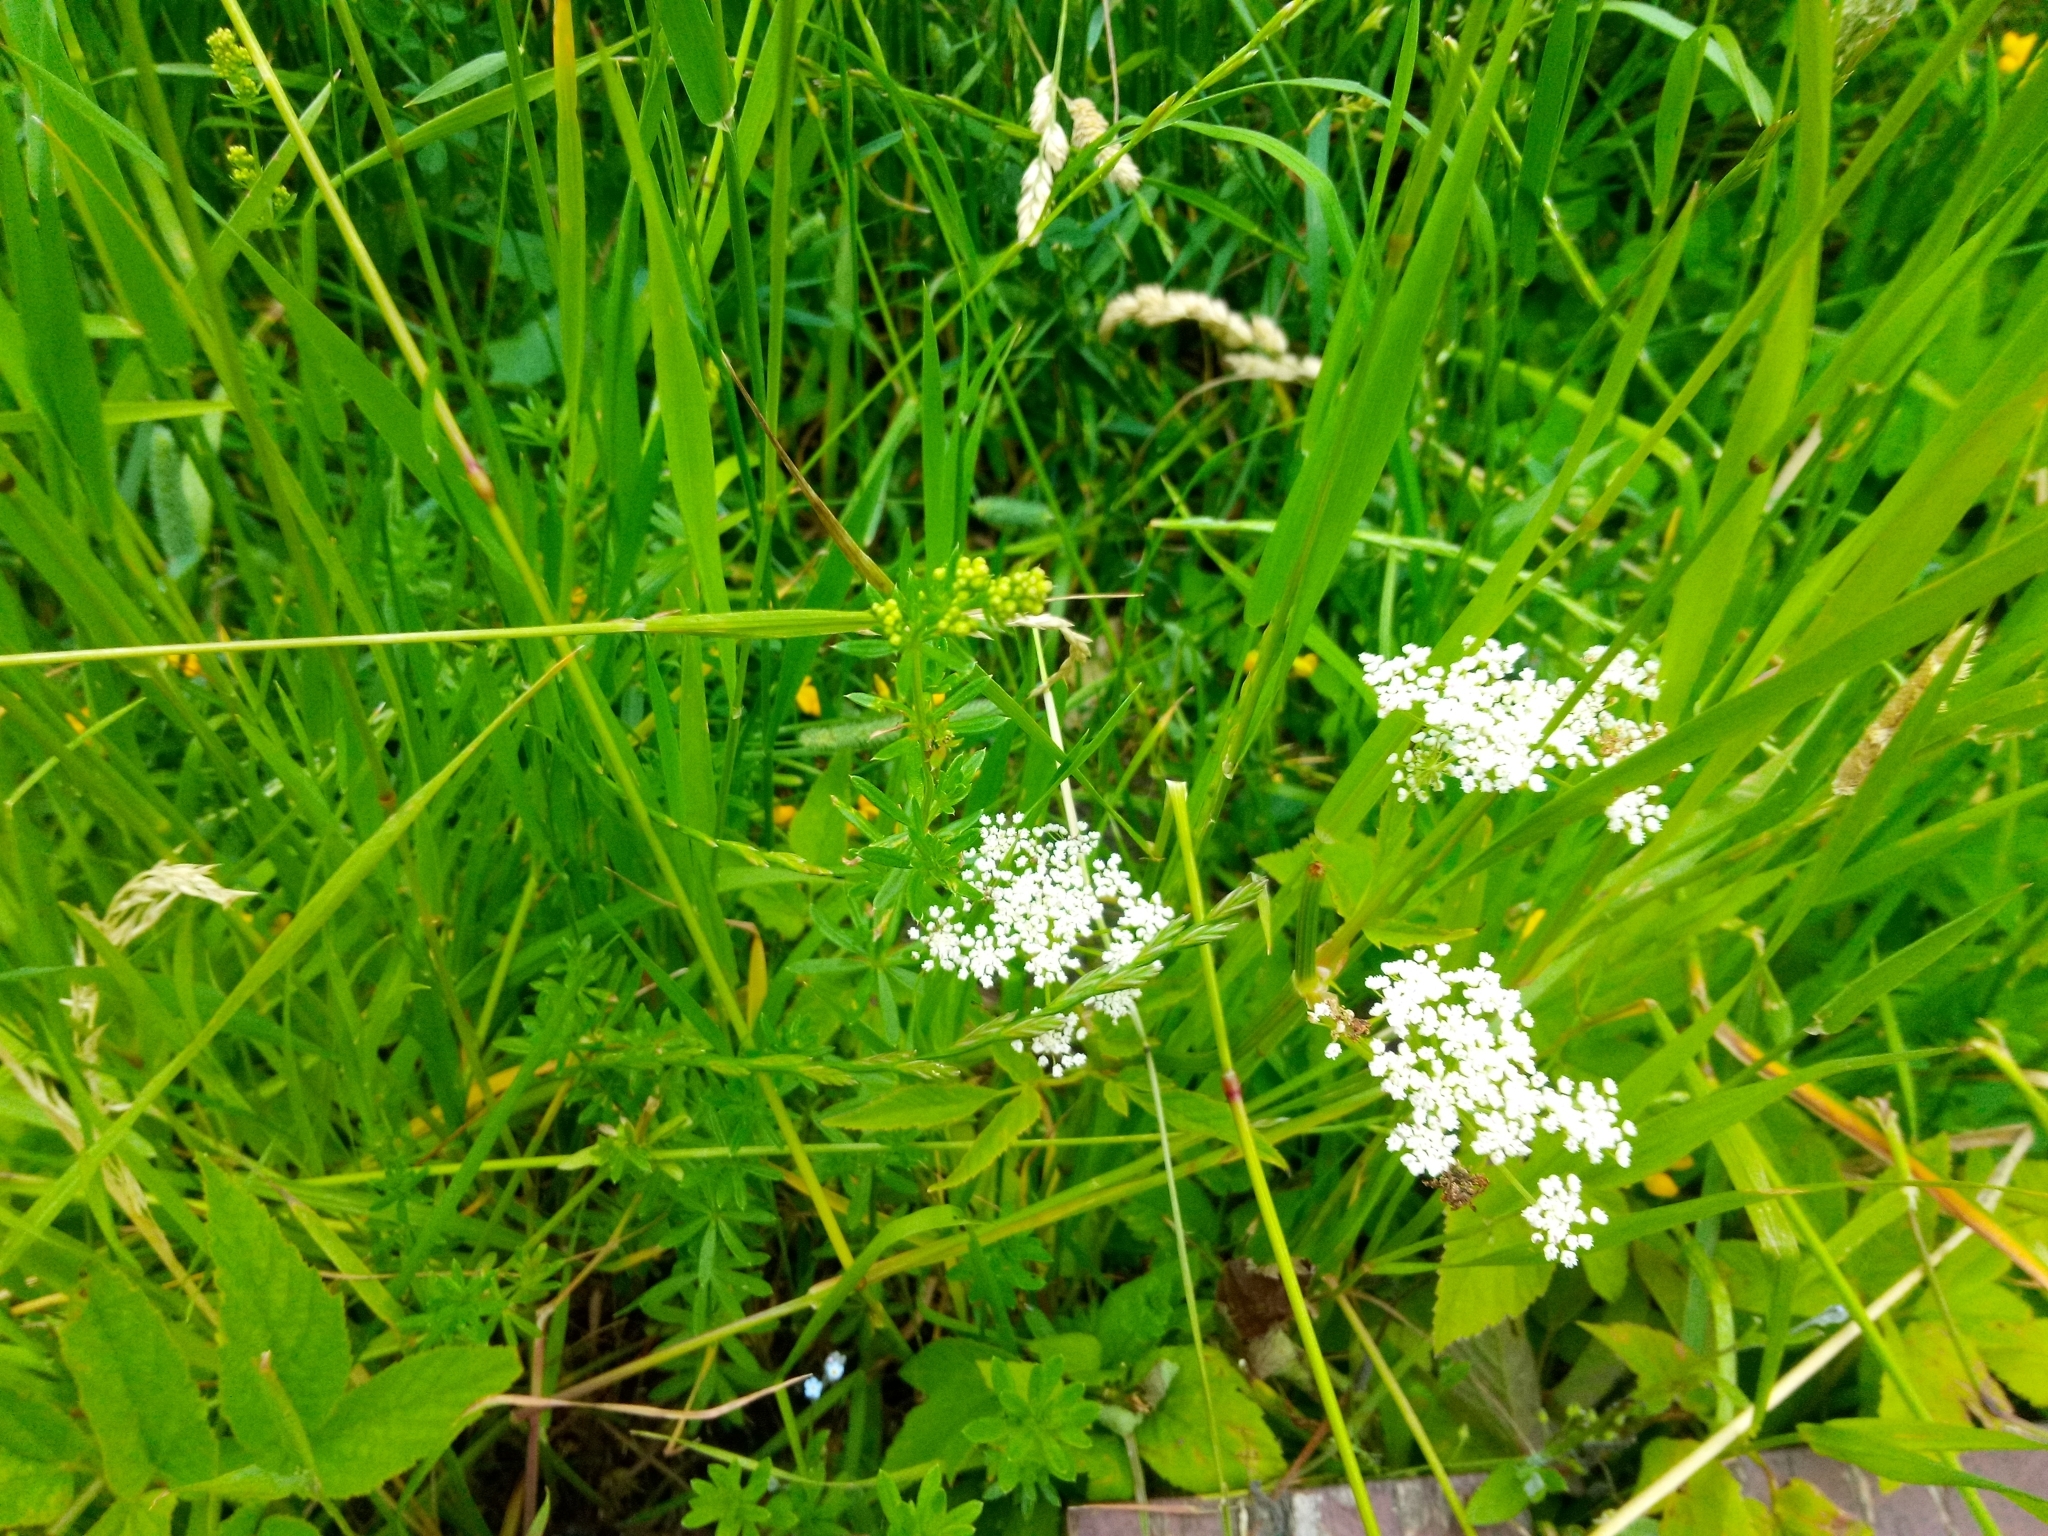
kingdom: Plantae
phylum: Tracheophyta
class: Magnoliopsida
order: Apiales
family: Apiaceae
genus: Aegopodium
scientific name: Aegopodium podagraria
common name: Ground-elder
